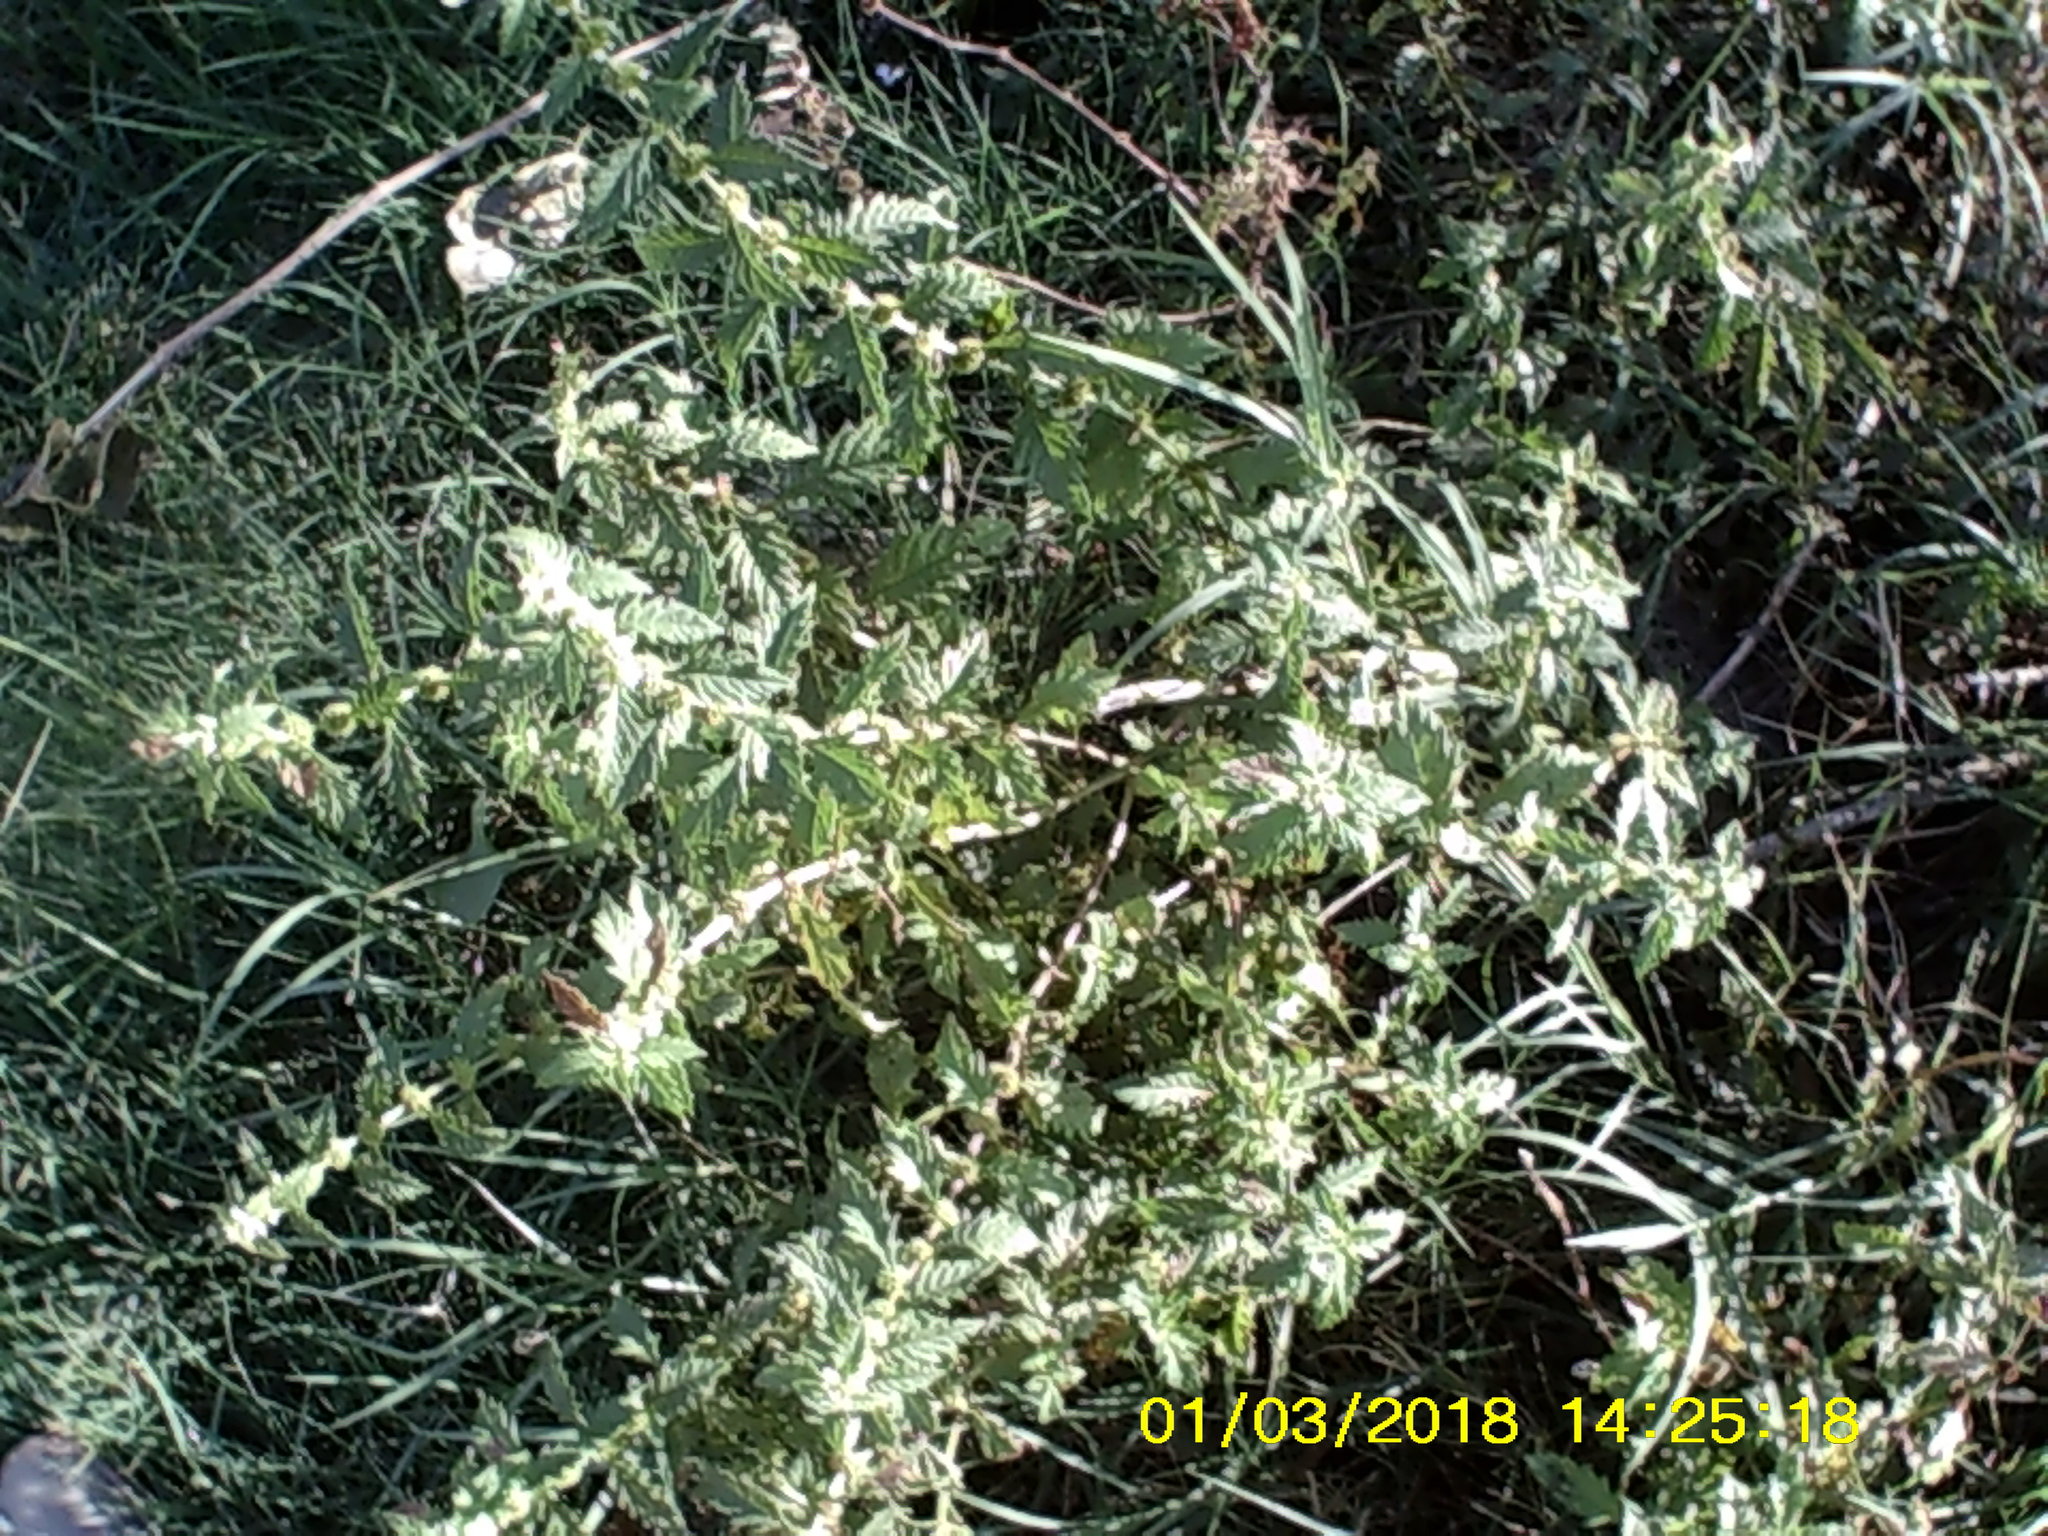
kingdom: Plantae
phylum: Tracheophyta
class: Magnoliopsida
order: Lamiales
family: Lamiaceae
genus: Lycopus
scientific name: Lycopus europaeus
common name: European bugleweed
